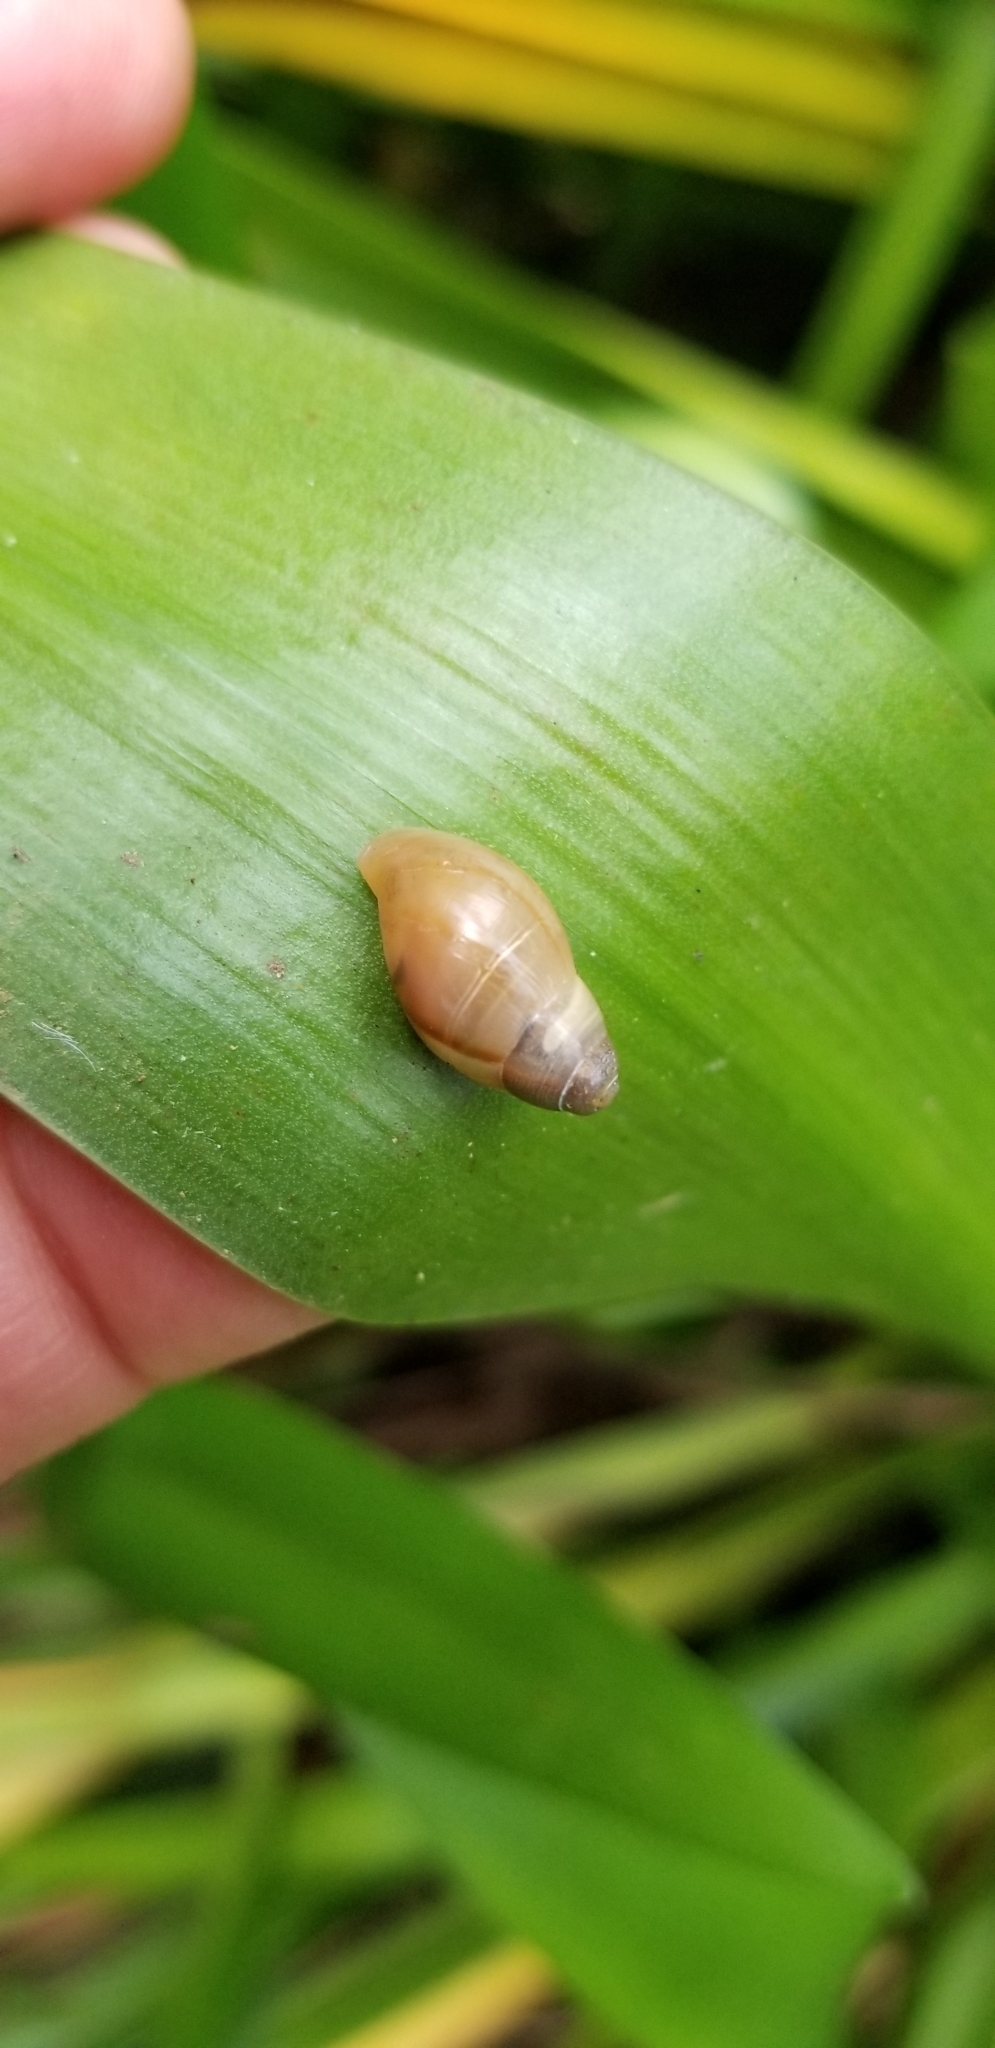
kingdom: Animalia
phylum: Mollusca
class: Gastropoda
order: Stylommatophora
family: Bulimulidae
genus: Drymaeus
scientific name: Drymaeus
